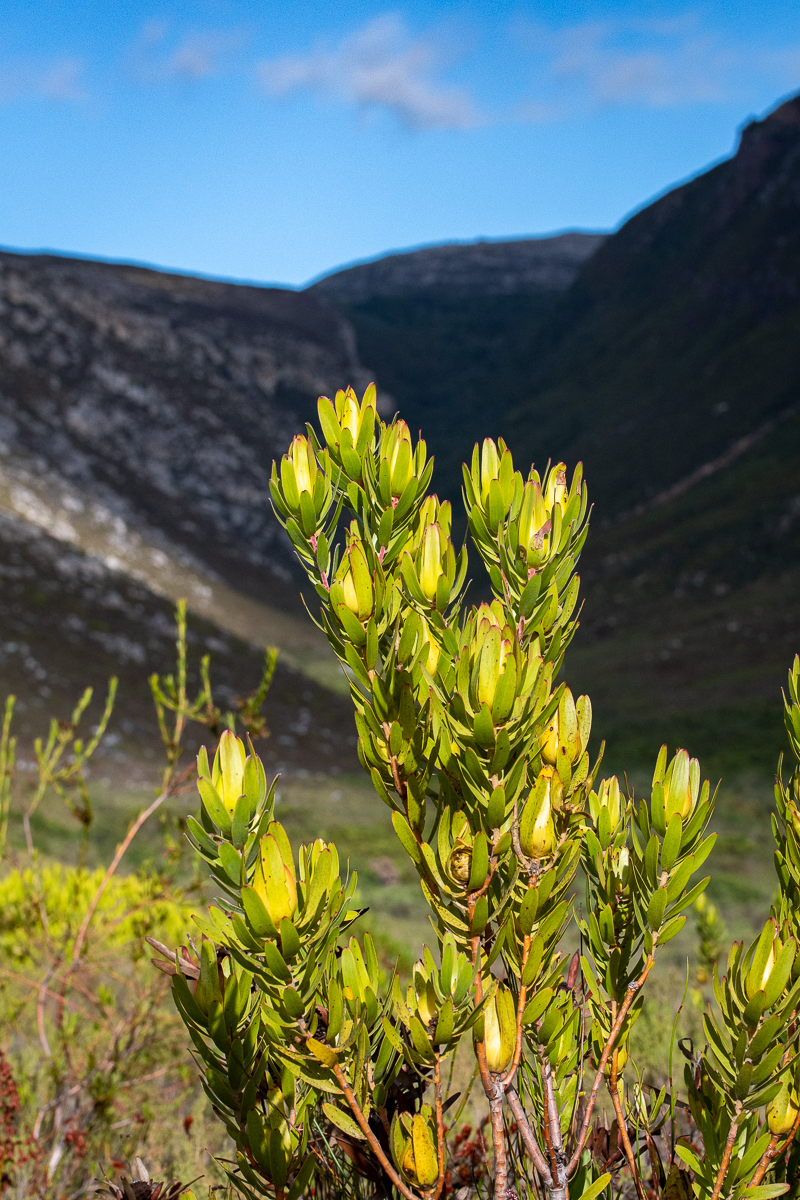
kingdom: Plantae
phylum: Tracheophyta
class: Magnoliopsida
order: Proteales
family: Proteaceae
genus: Leucadendron
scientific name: Leucadendron laureolum
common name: Golden sunshinebush
